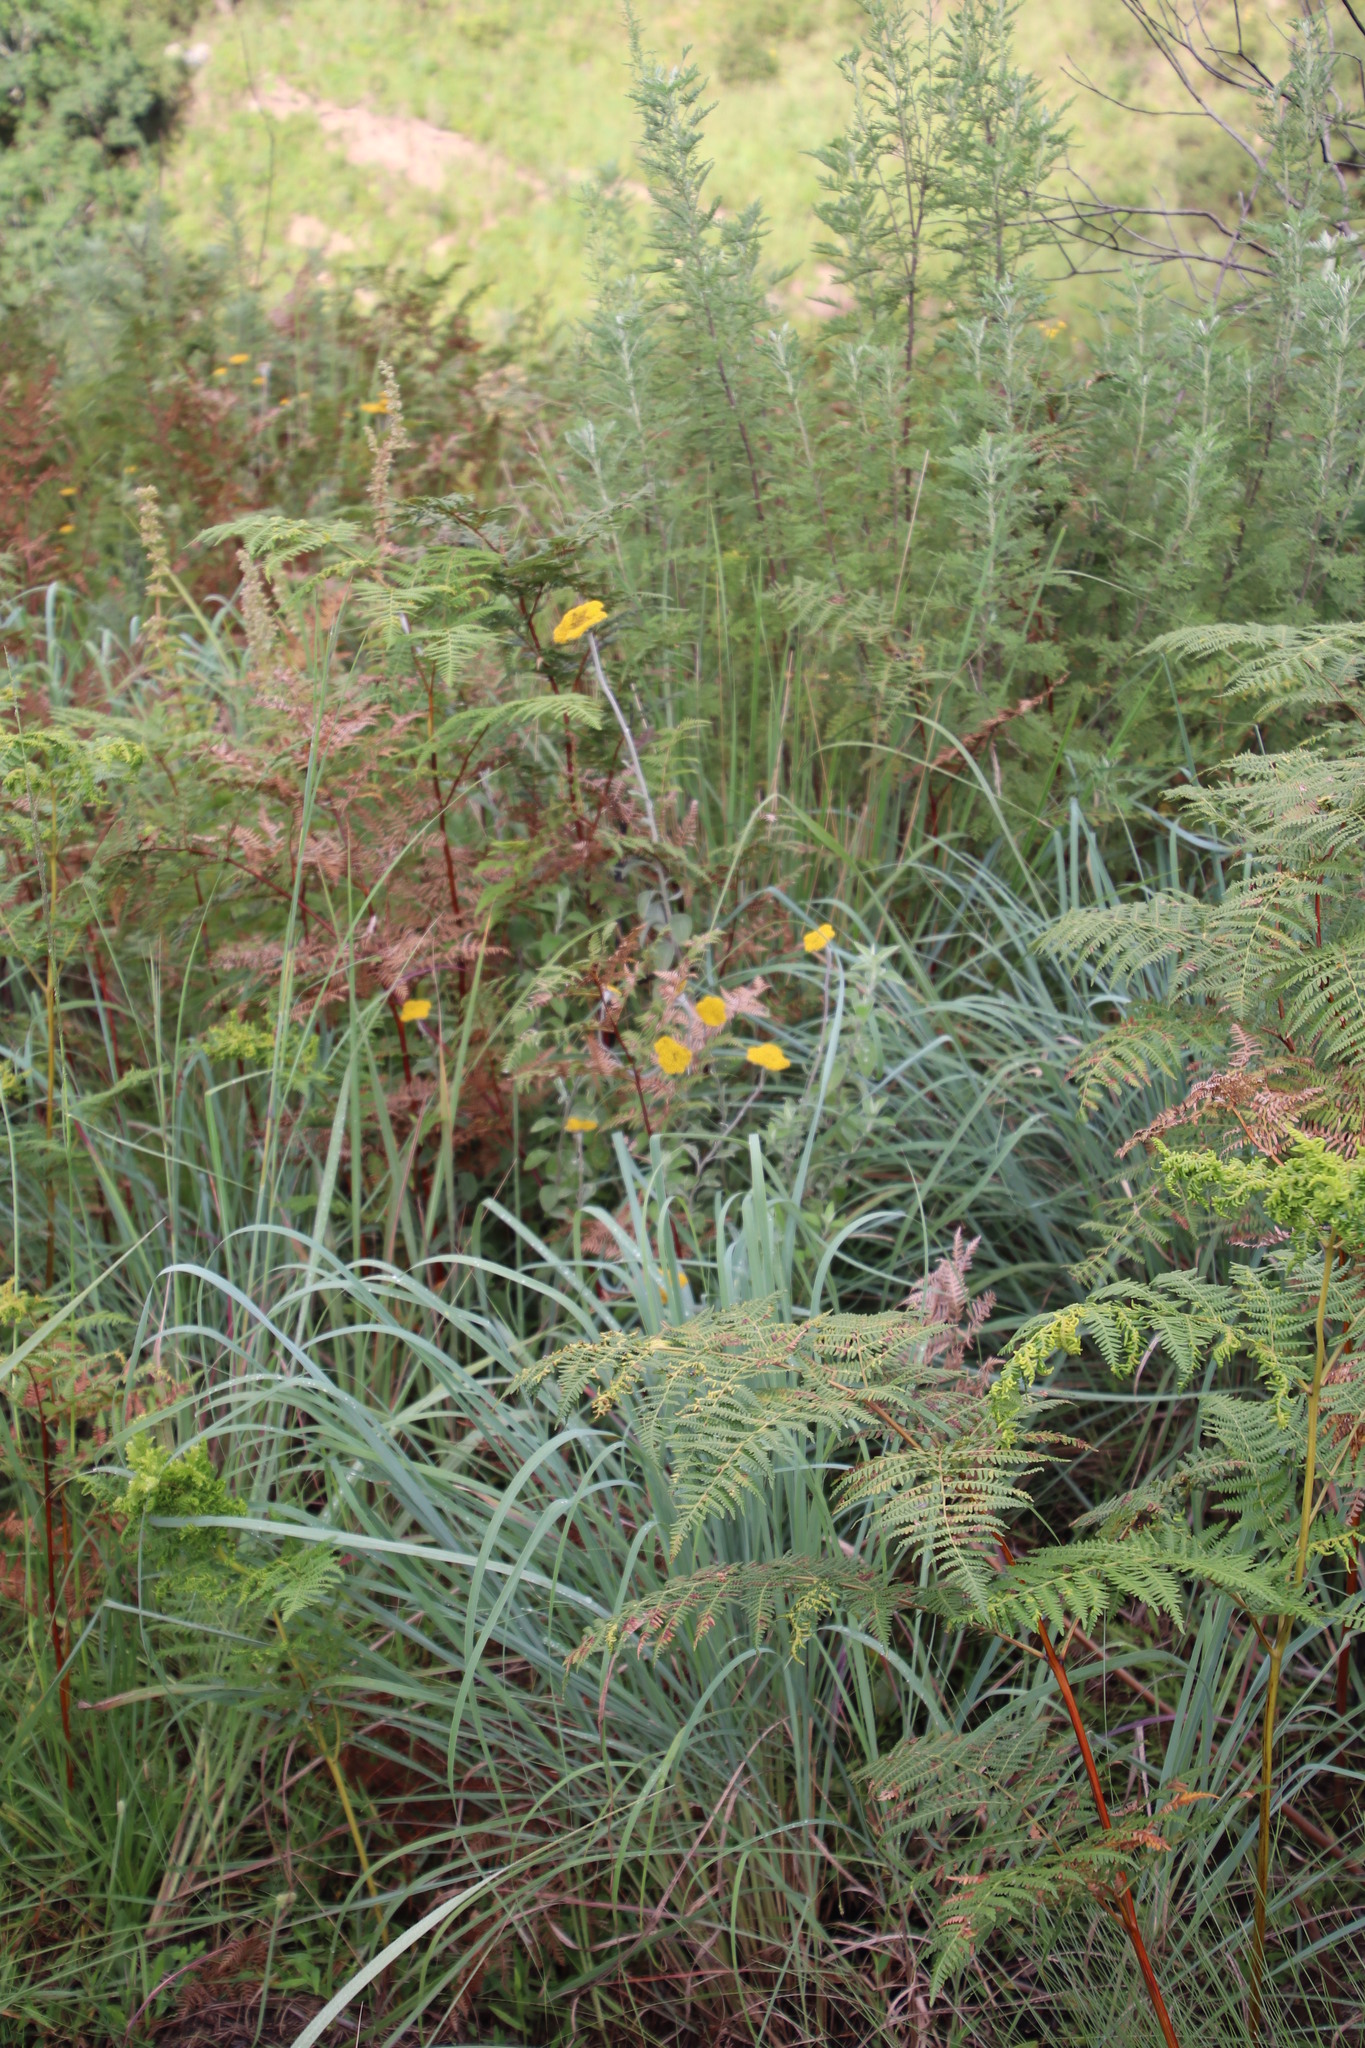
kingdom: Plantae
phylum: Tracheophyta
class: Magnoliopsida
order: Asterales
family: Asteraceae
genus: Helichrysum
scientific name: Helichrysum umbraculigerum
